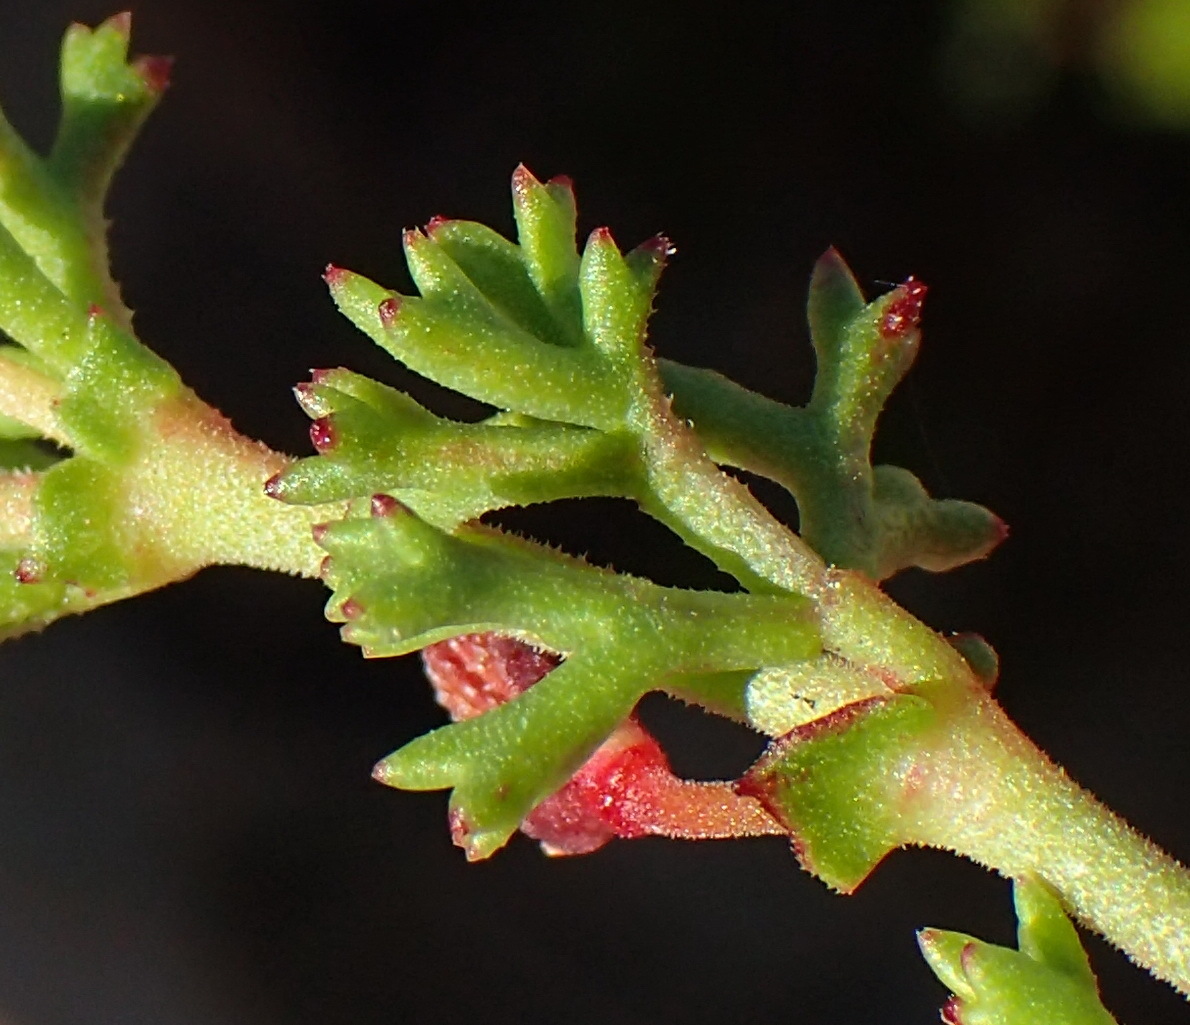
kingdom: Plantae
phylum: Tracheophyta
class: Magnoliopsida
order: Geraniales
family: Geraniaceae
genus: Pelargonium
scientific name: Pelargonium fruticosum
